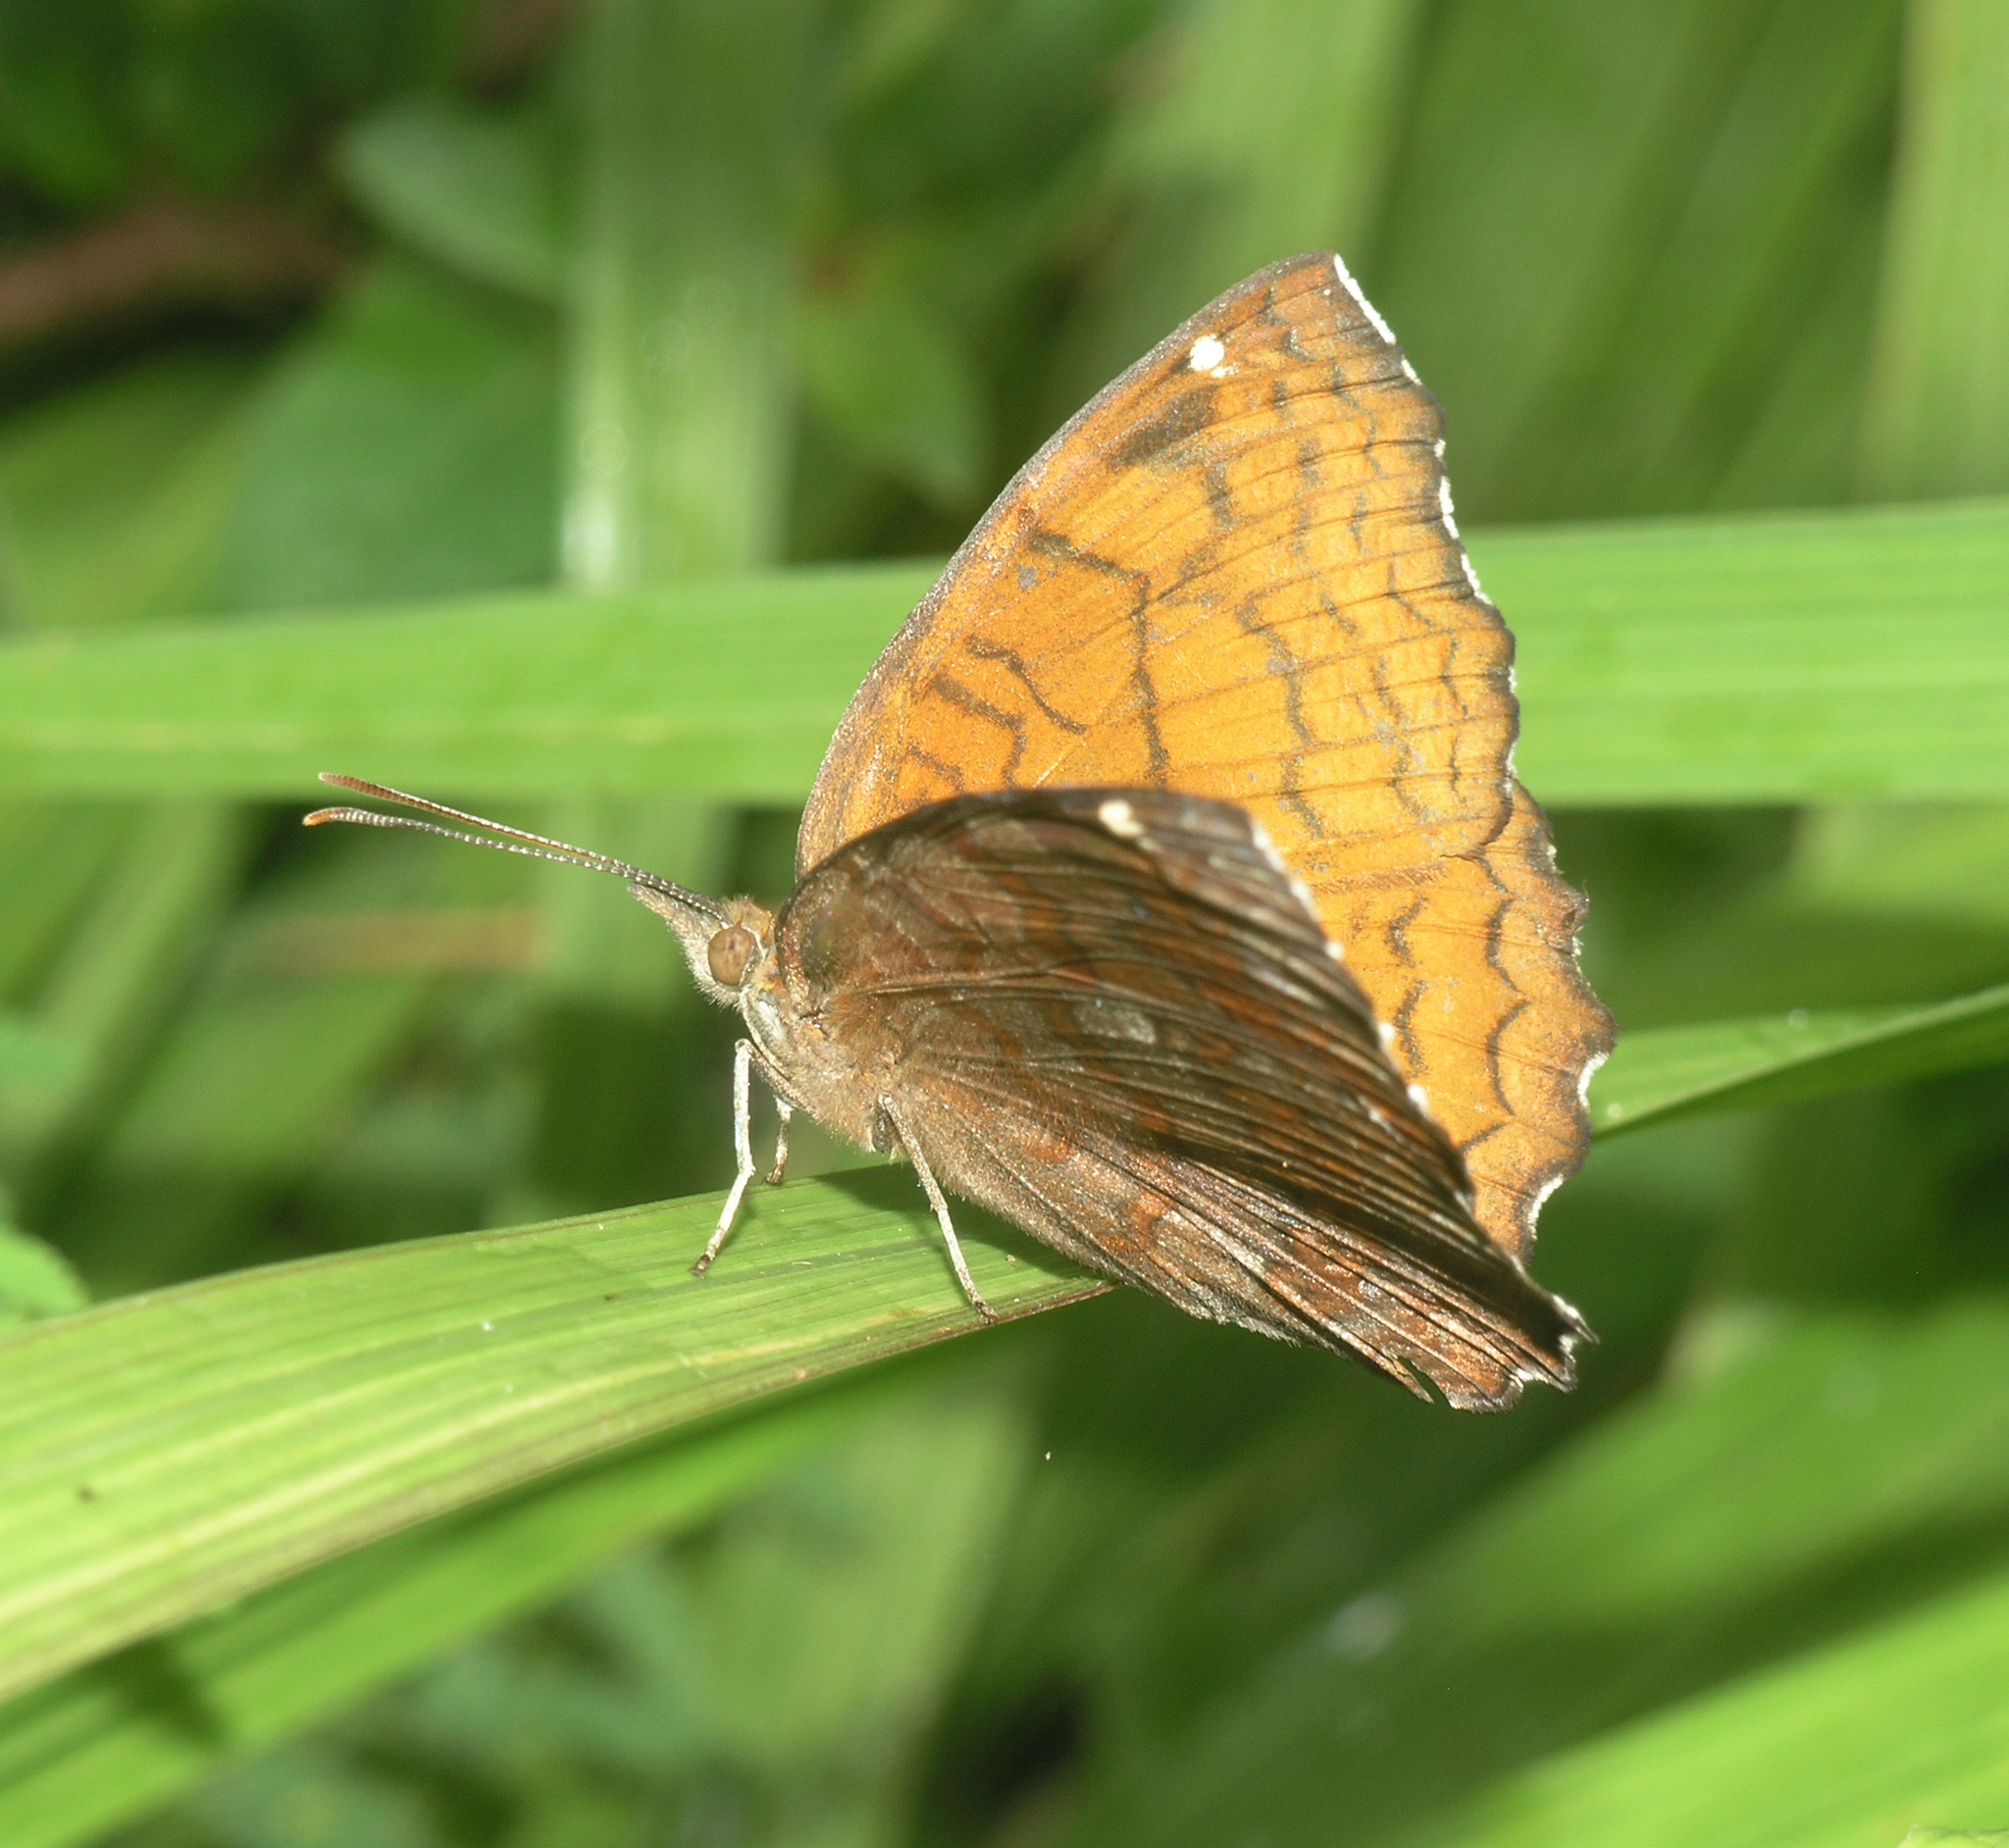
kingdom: Animalia
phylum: Arthropoda
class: Insecta
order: Lepidoptera
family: Nymphalidae
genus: Ariadne
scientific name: Ariadne ariadne
